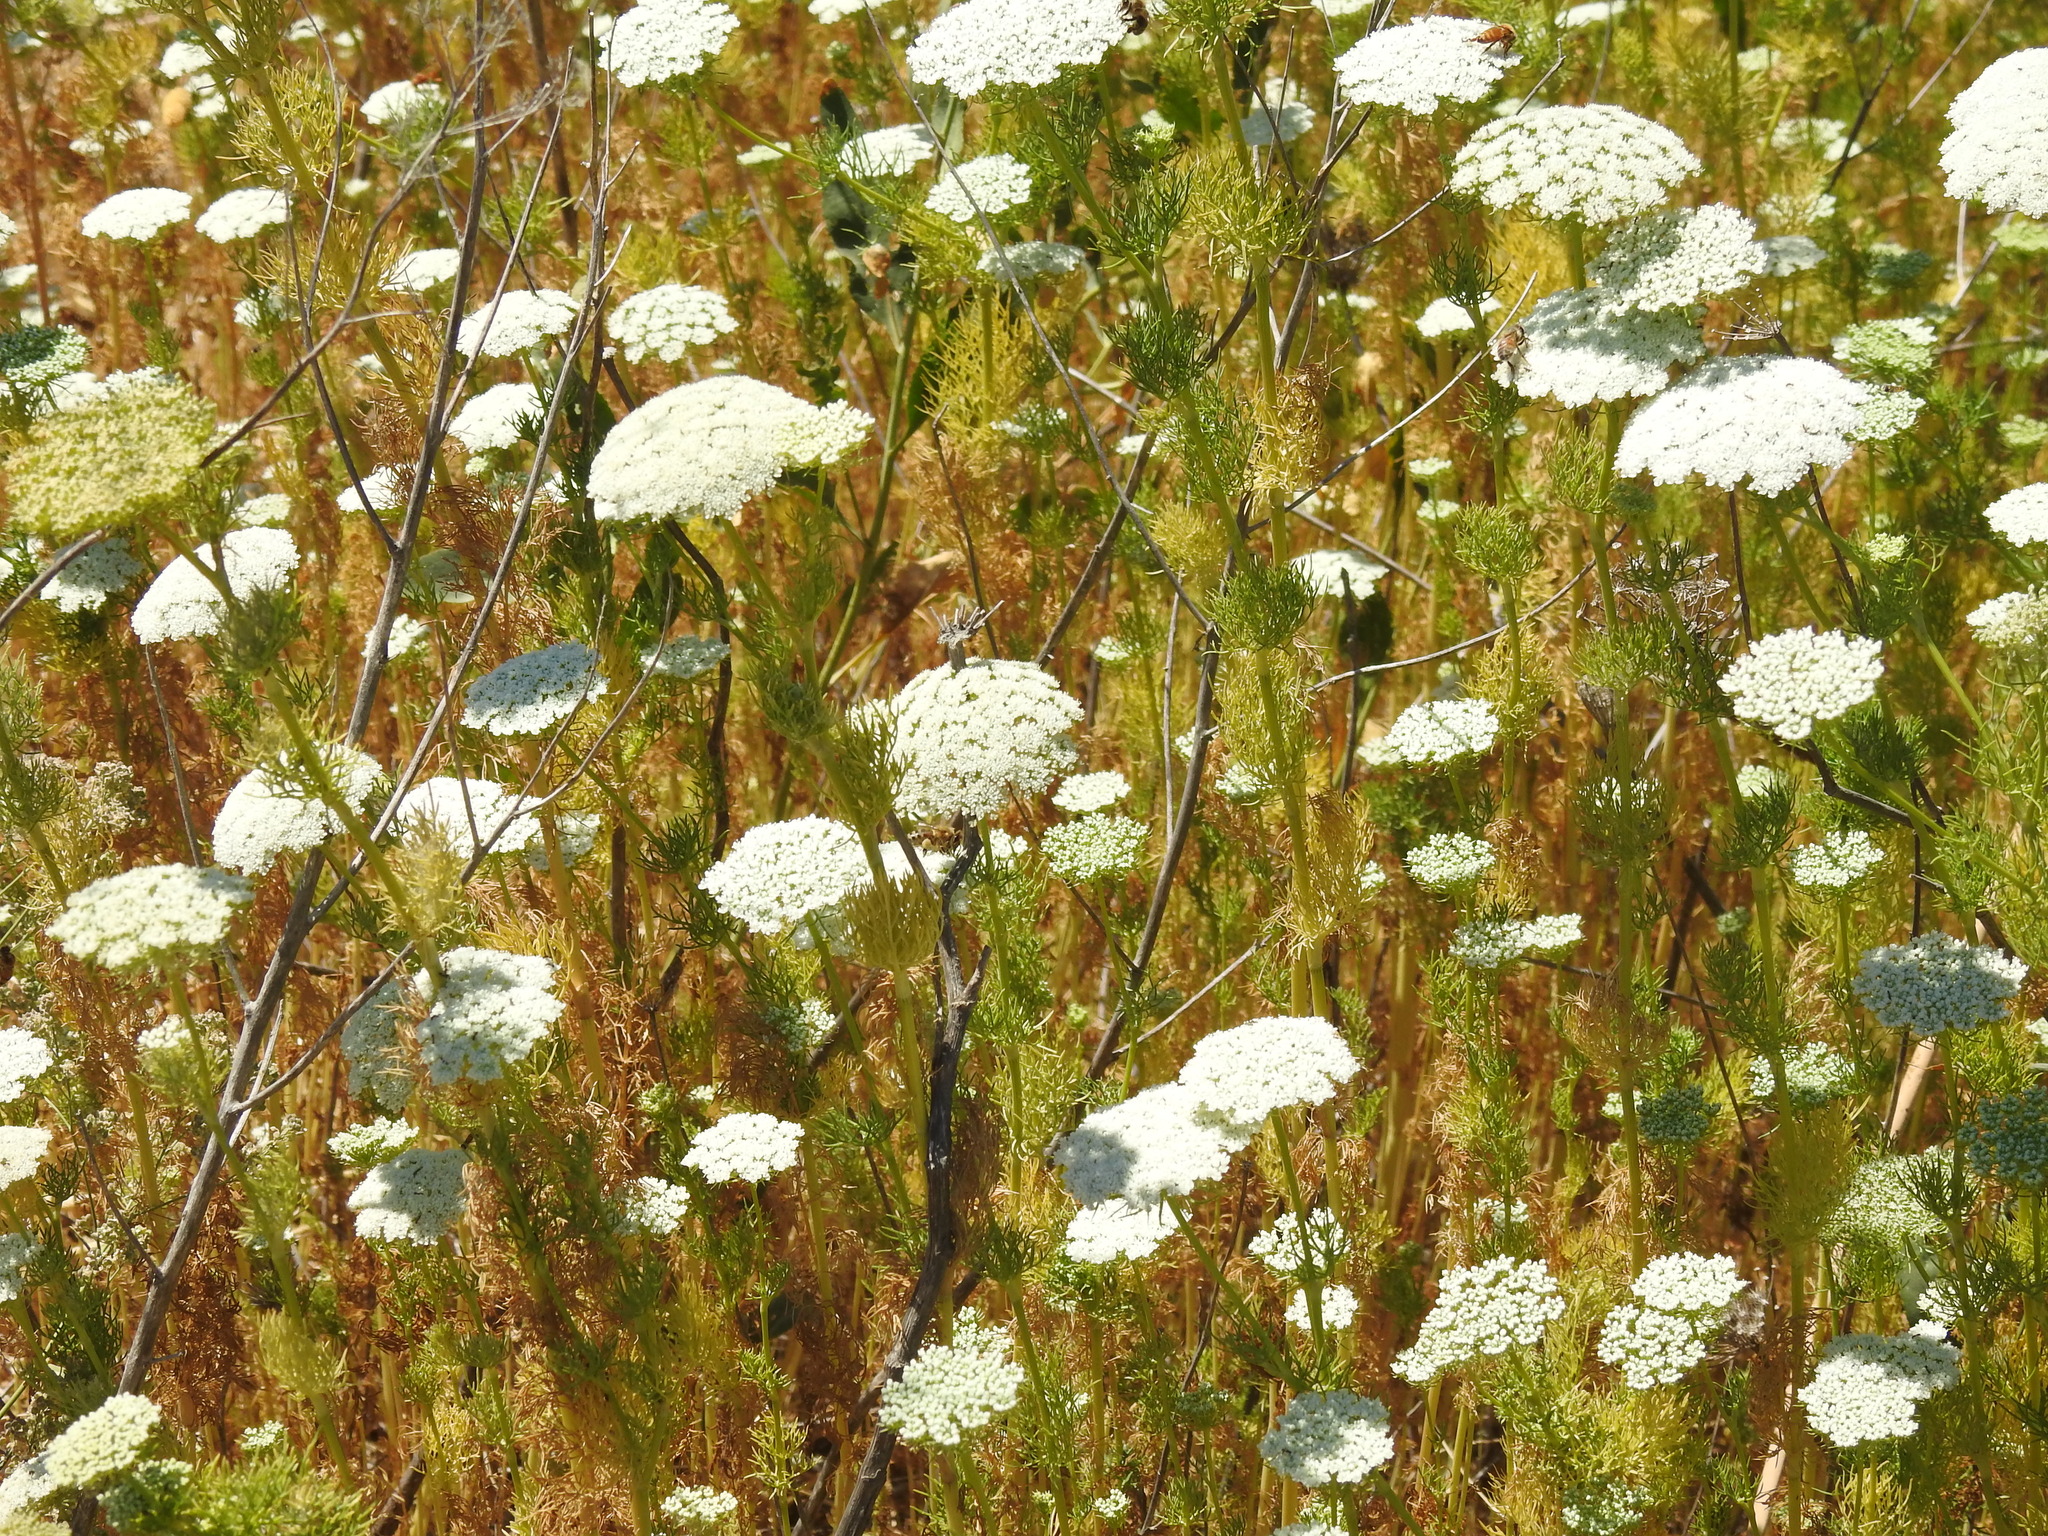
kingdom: Plantae
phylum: Tracheophyta
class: Magnoliopsida
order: Apiales
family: Apiaceae
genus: Visnaga
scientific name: Visnaga daucoides
